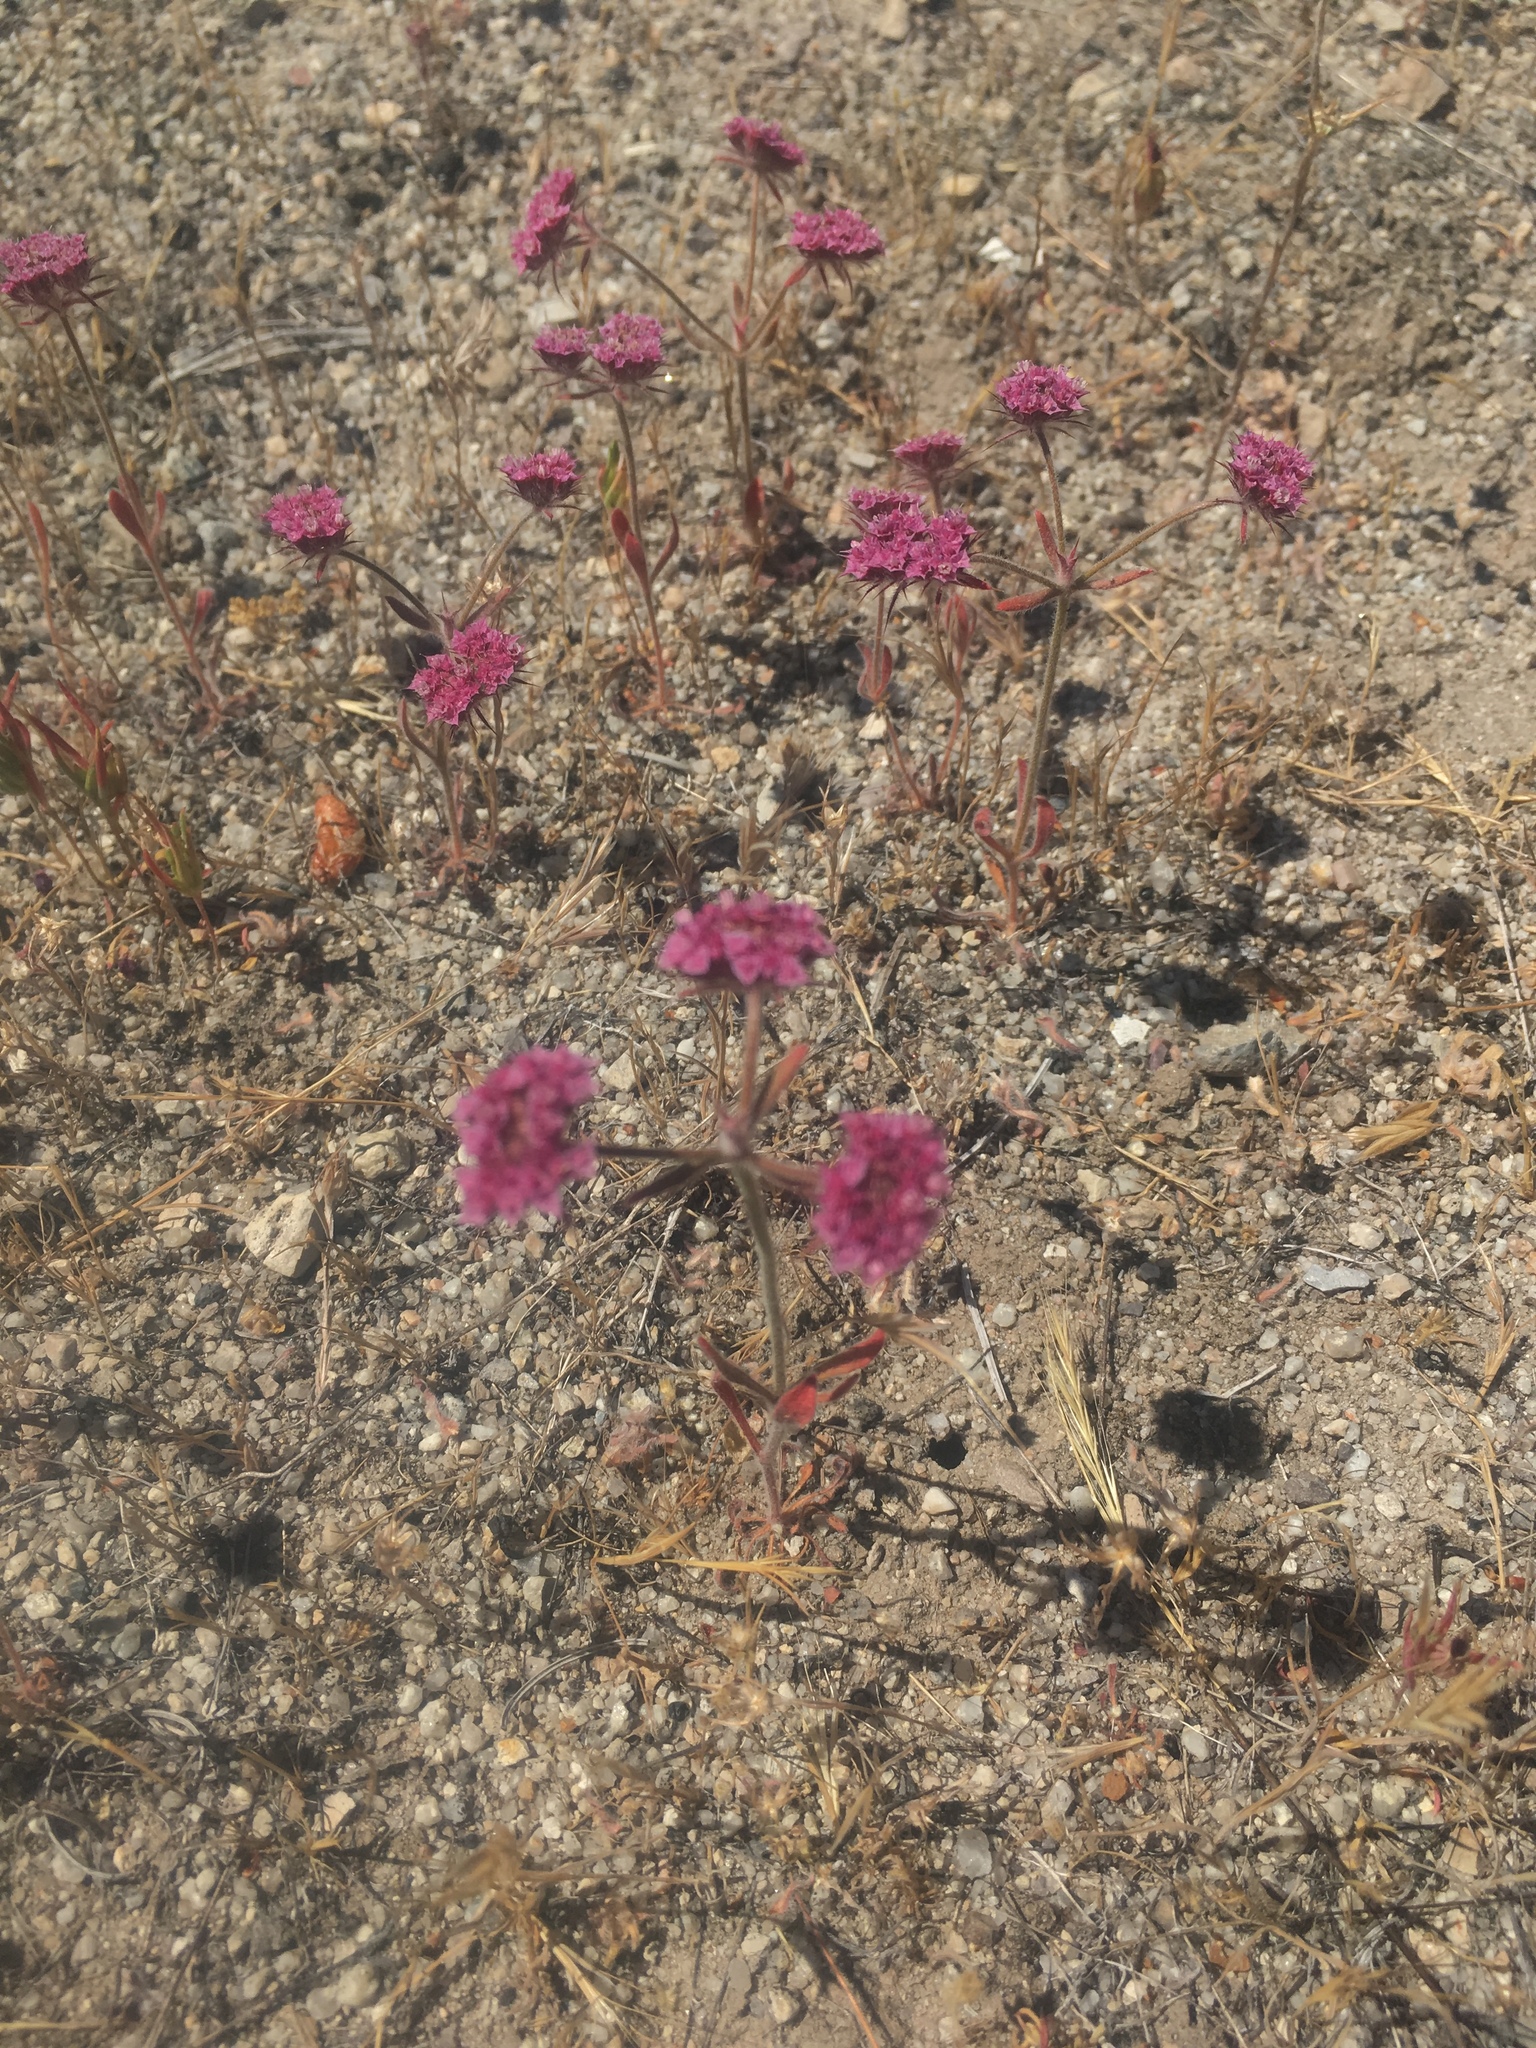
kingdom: Plantae
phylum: Tracheophyta
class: Magnoliopsida
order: Caryophyllales
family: Polygonaceae
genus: Chorizanthe
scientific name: Chorizanthe douglasii
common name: Douglas's spineflower
